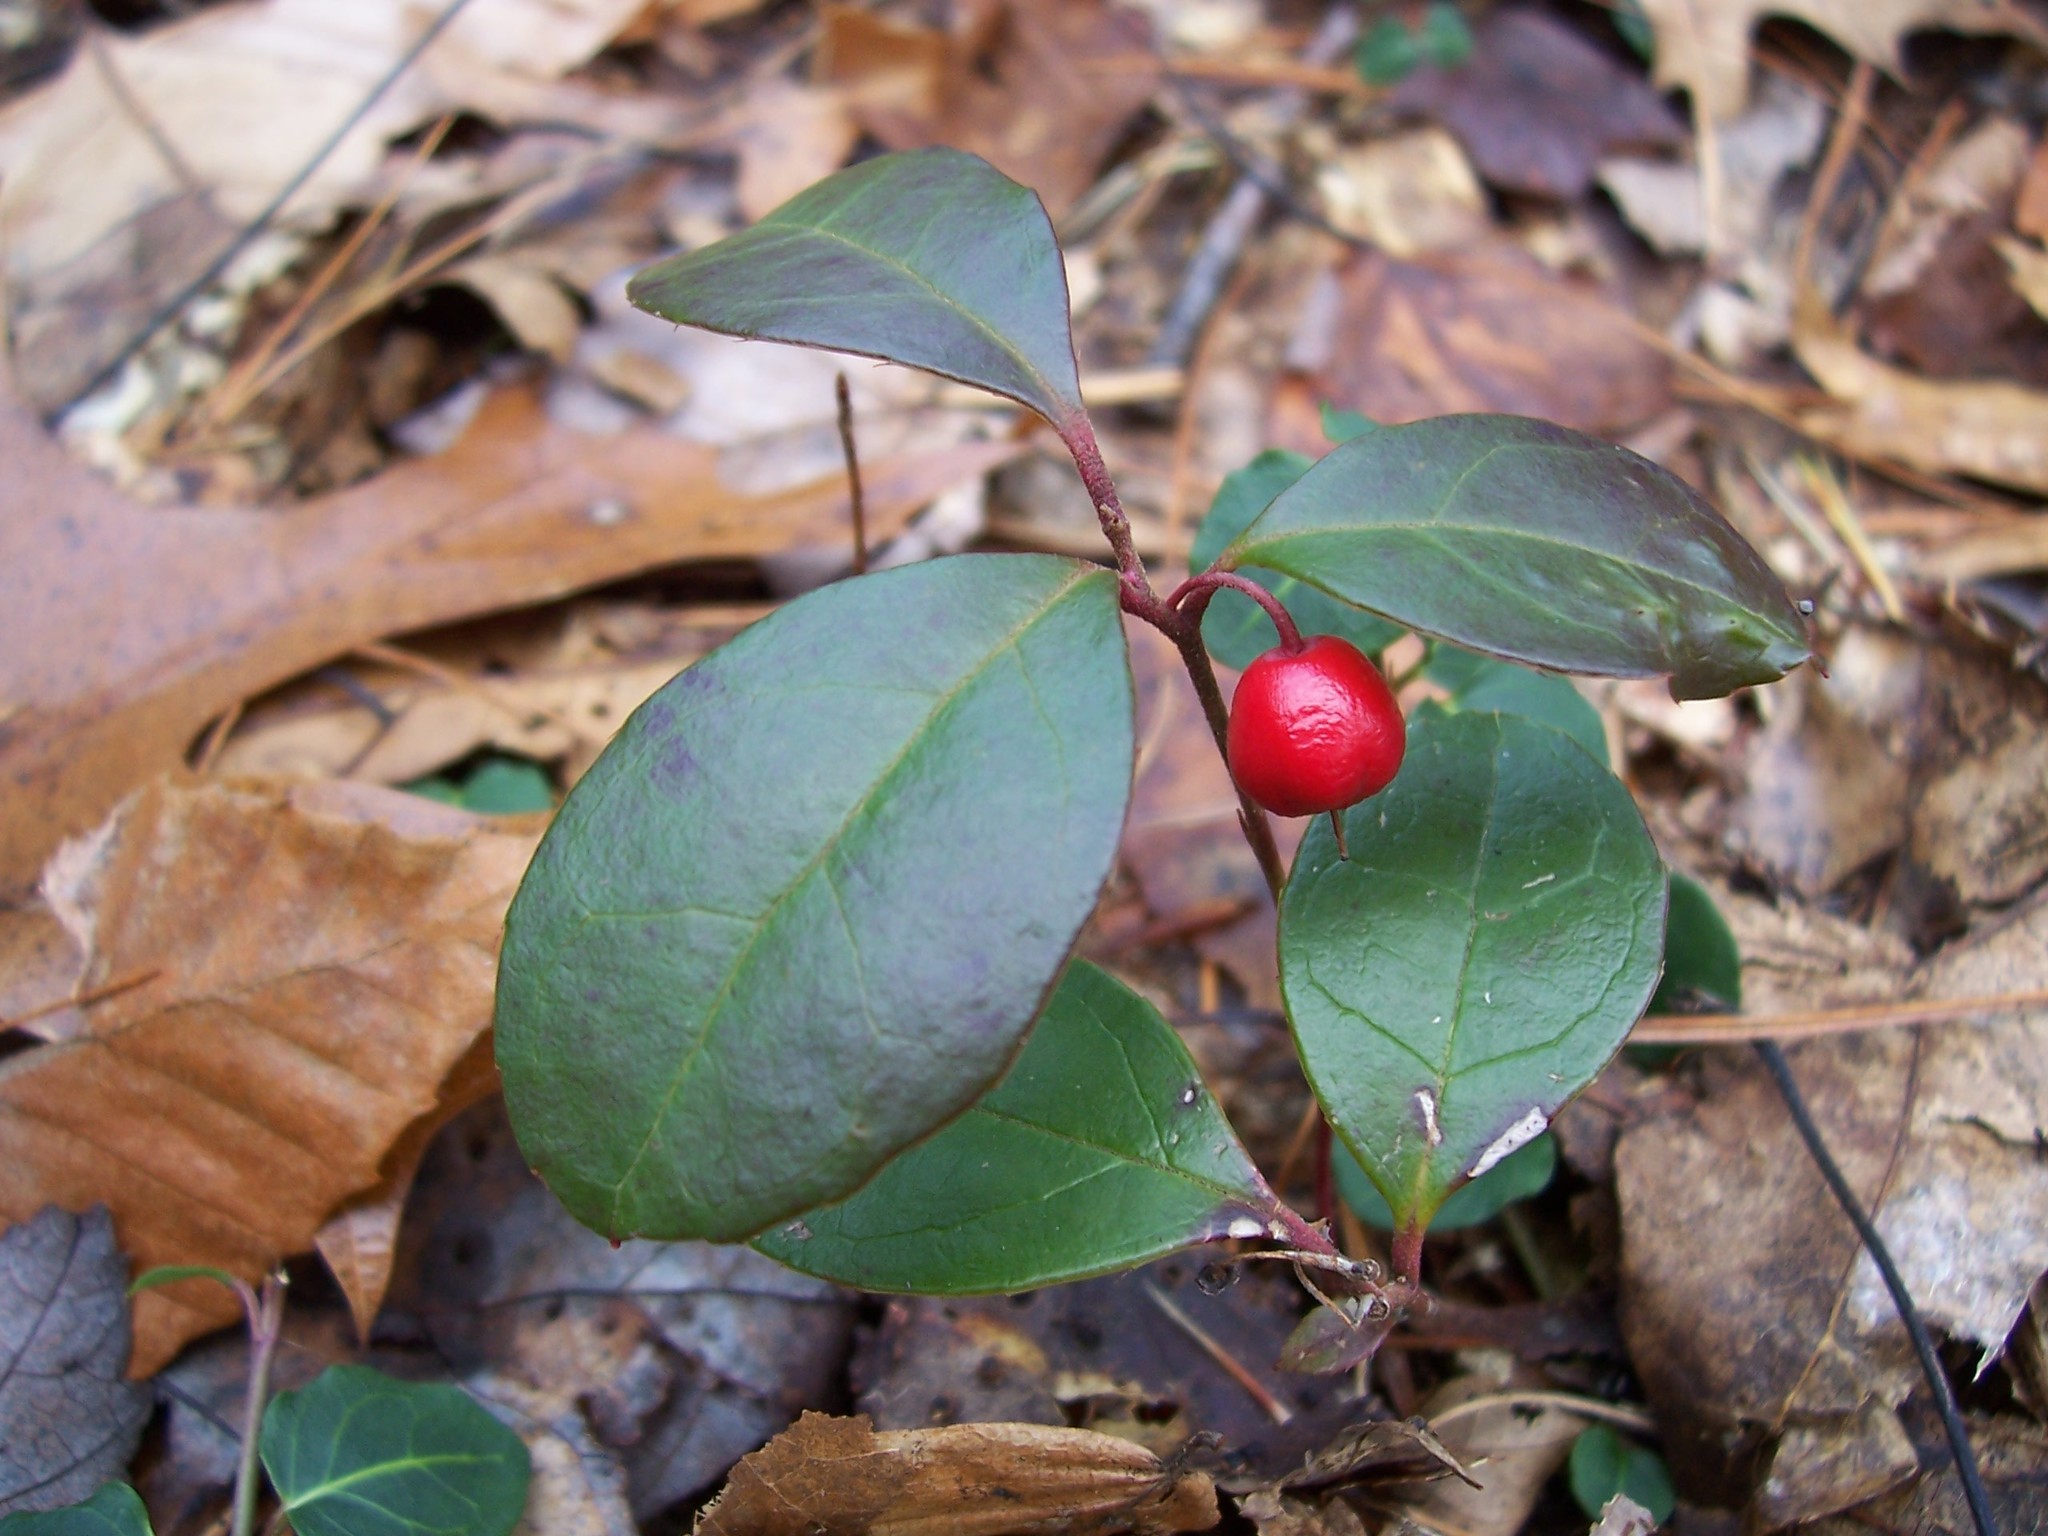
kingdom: Plantae
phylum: Tracheophyta
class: Magnoliopsida
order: Ericales
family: Ericaceae
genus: Gaultheria
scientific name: Gaultheria procumbens
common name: Checkerberry
